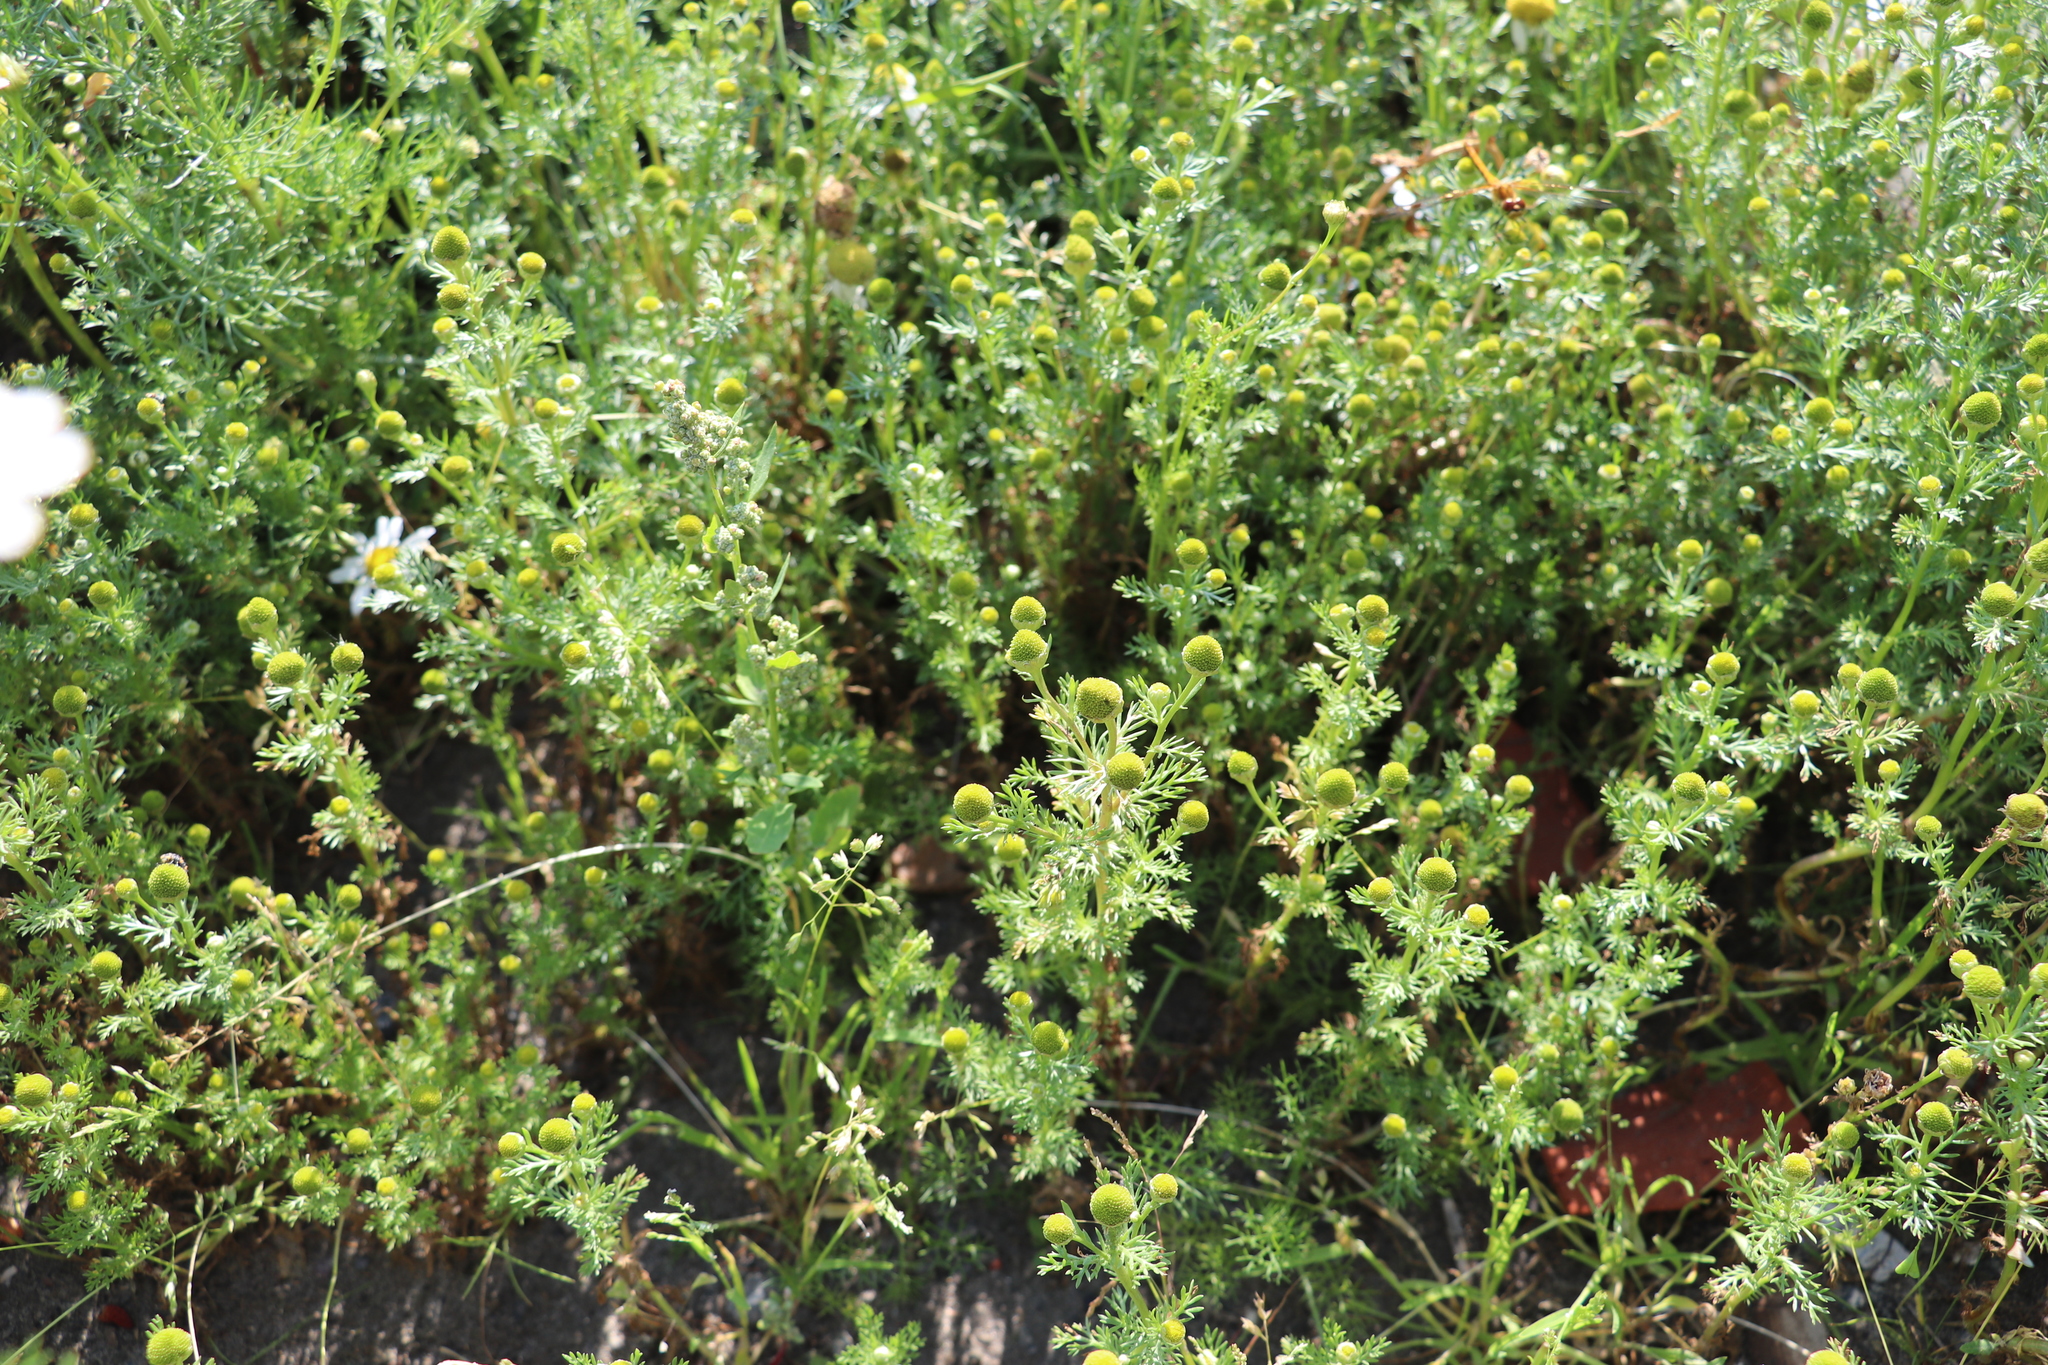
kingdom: Plantae
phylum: Tracheophyta
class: Magnoliopsida
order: Asterales
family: Asteraceae
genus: Matricaria
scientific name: Matricaria discoidea
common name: Disc mayweed
